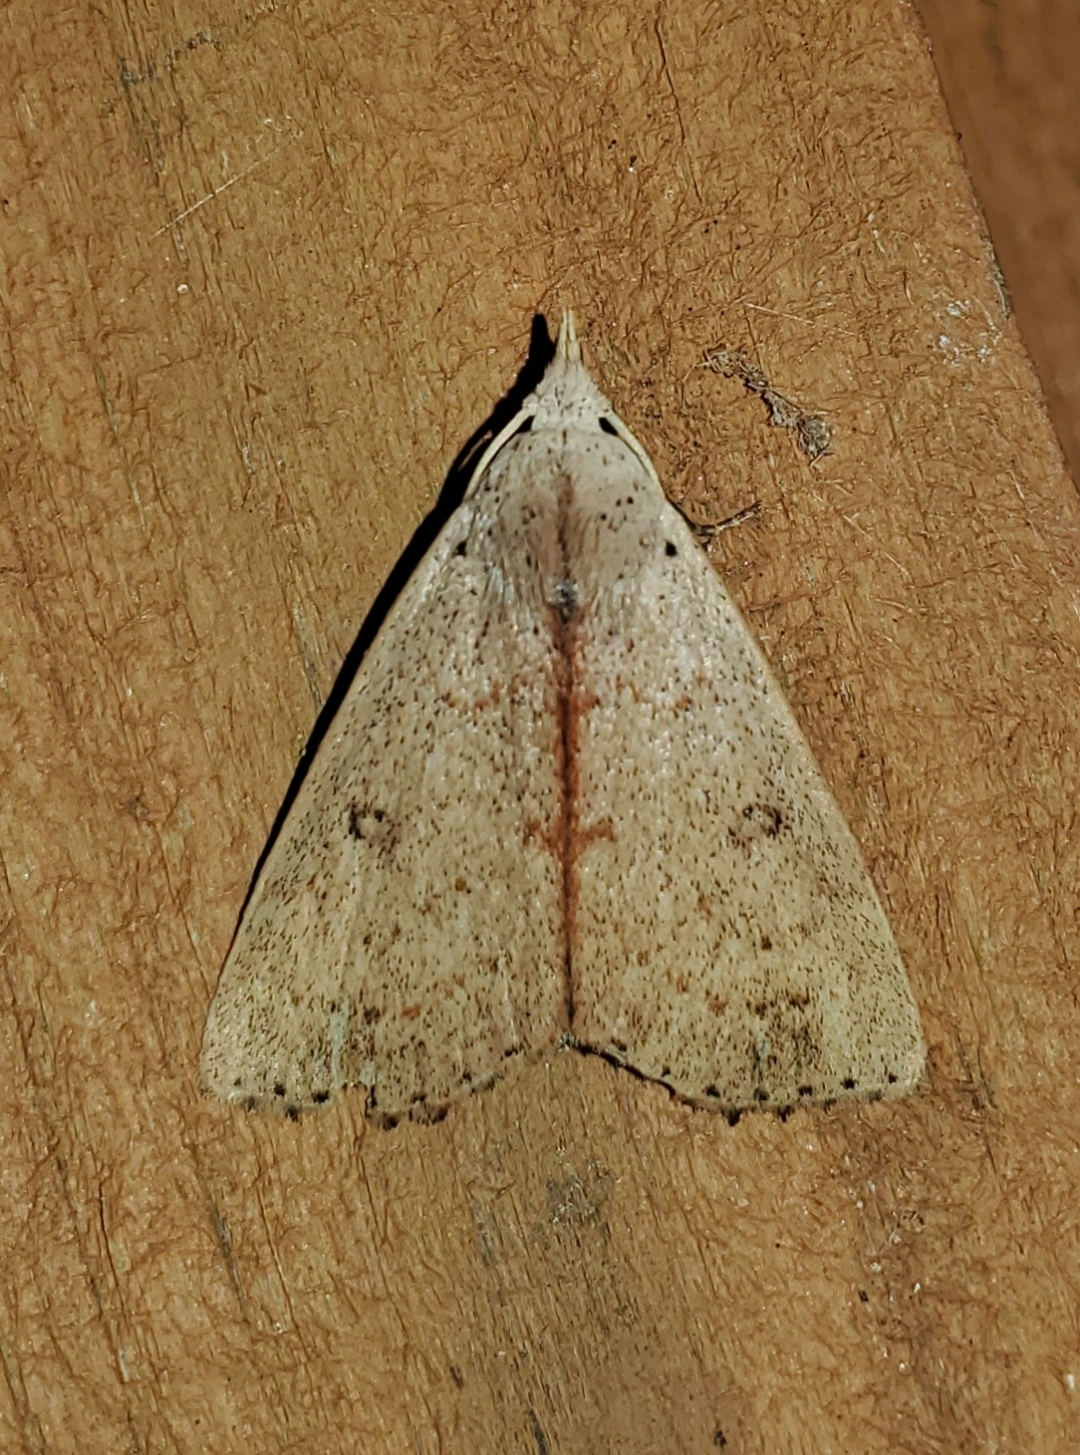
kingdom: Animalia
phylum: Arthropoda
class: Insecta
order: Lepidoptera
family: Erebidae
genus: Scolecocampa
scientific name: Scolecocampa liburna
